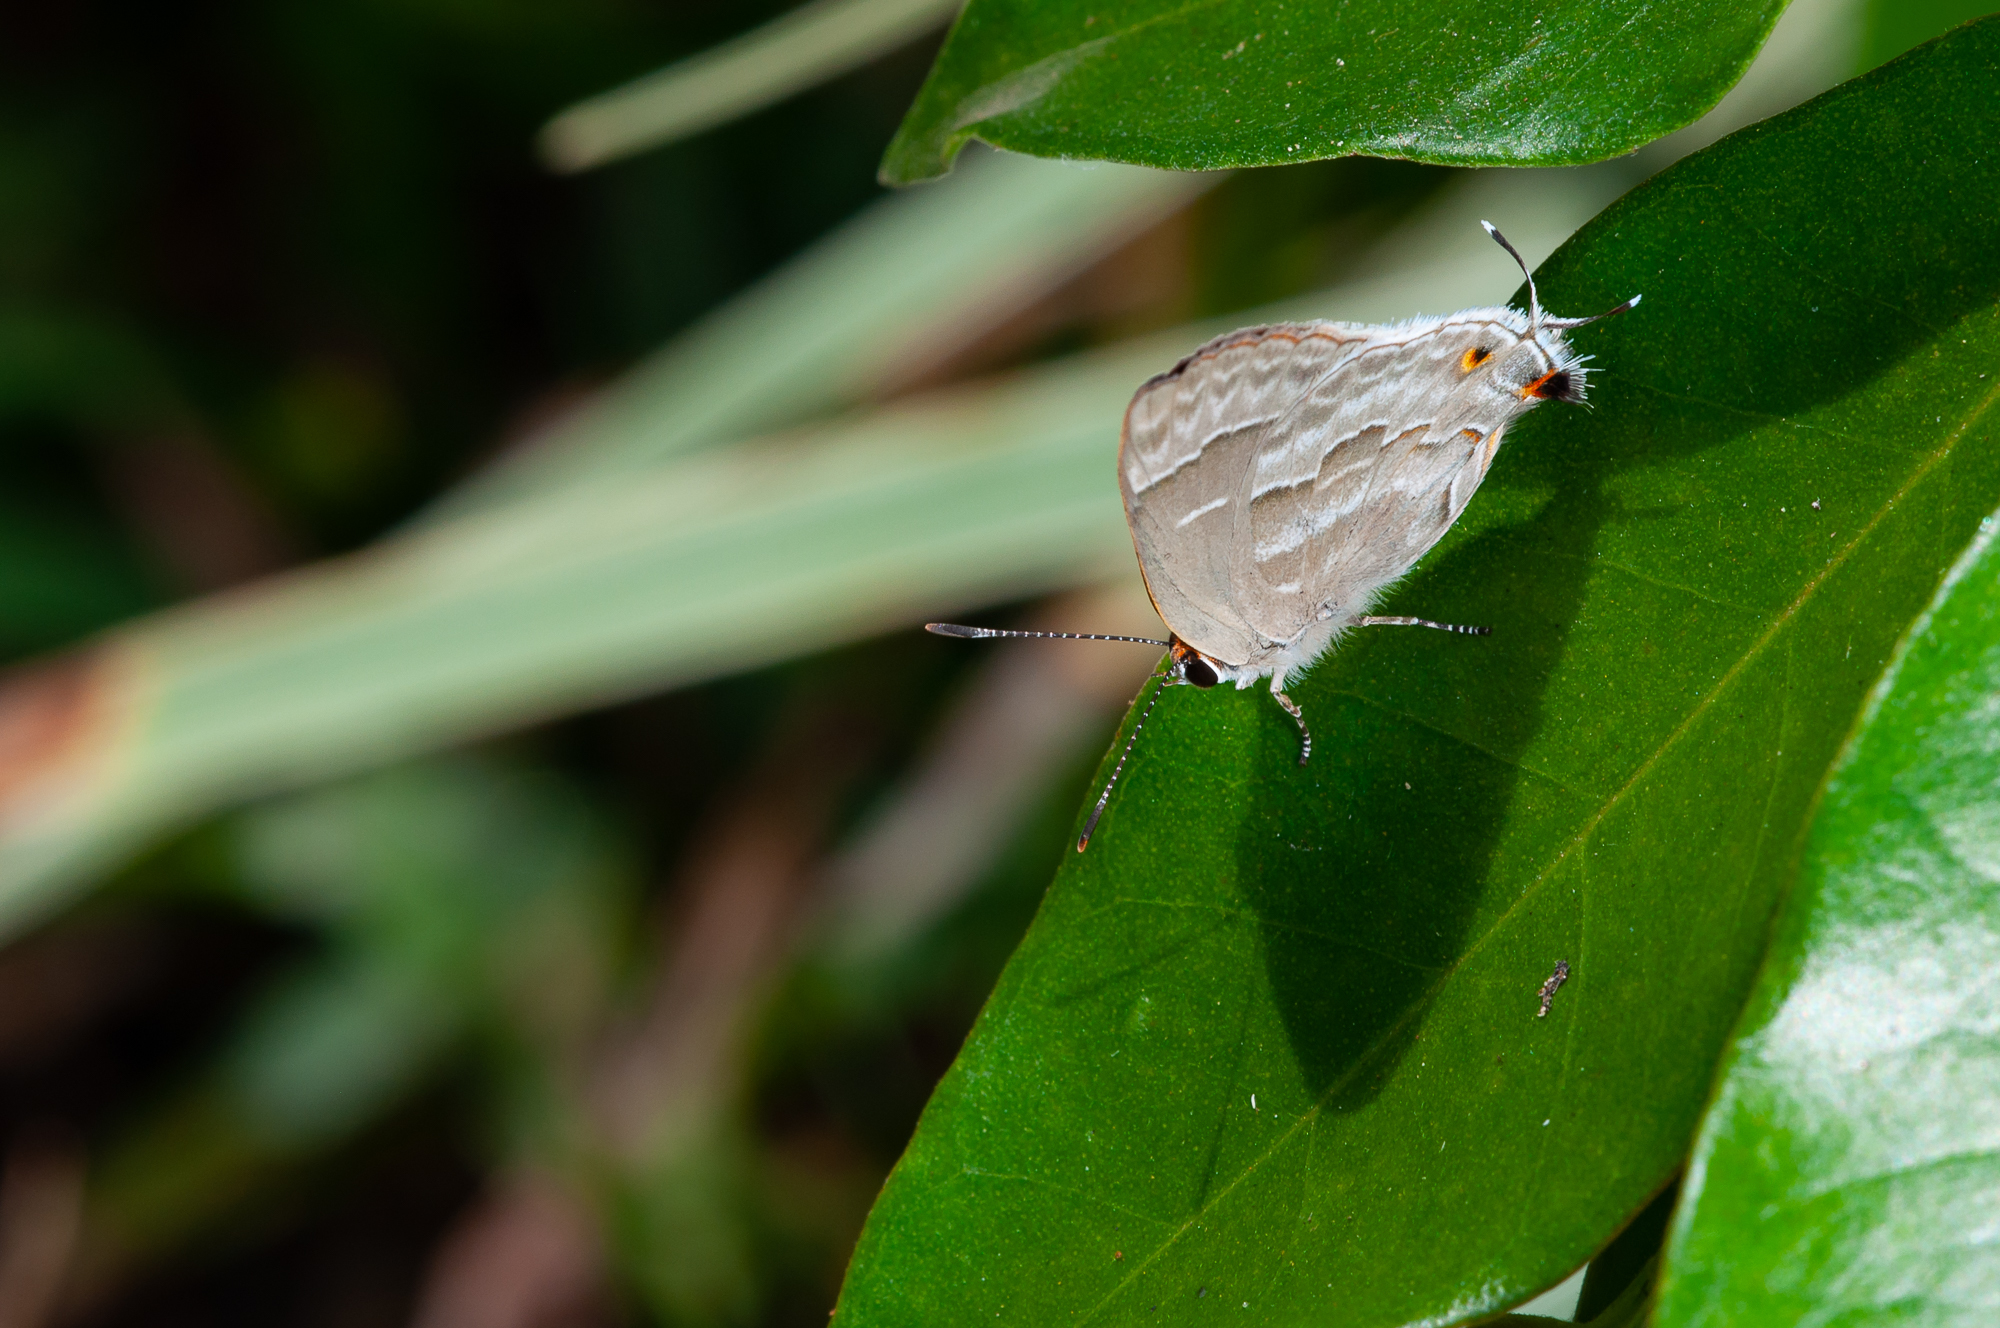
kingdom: Animalia
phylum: Arthropoda
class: Insecta
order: Lepidoptera
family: Lycaenidae
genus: Thecla
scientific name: Thecla yojoa
